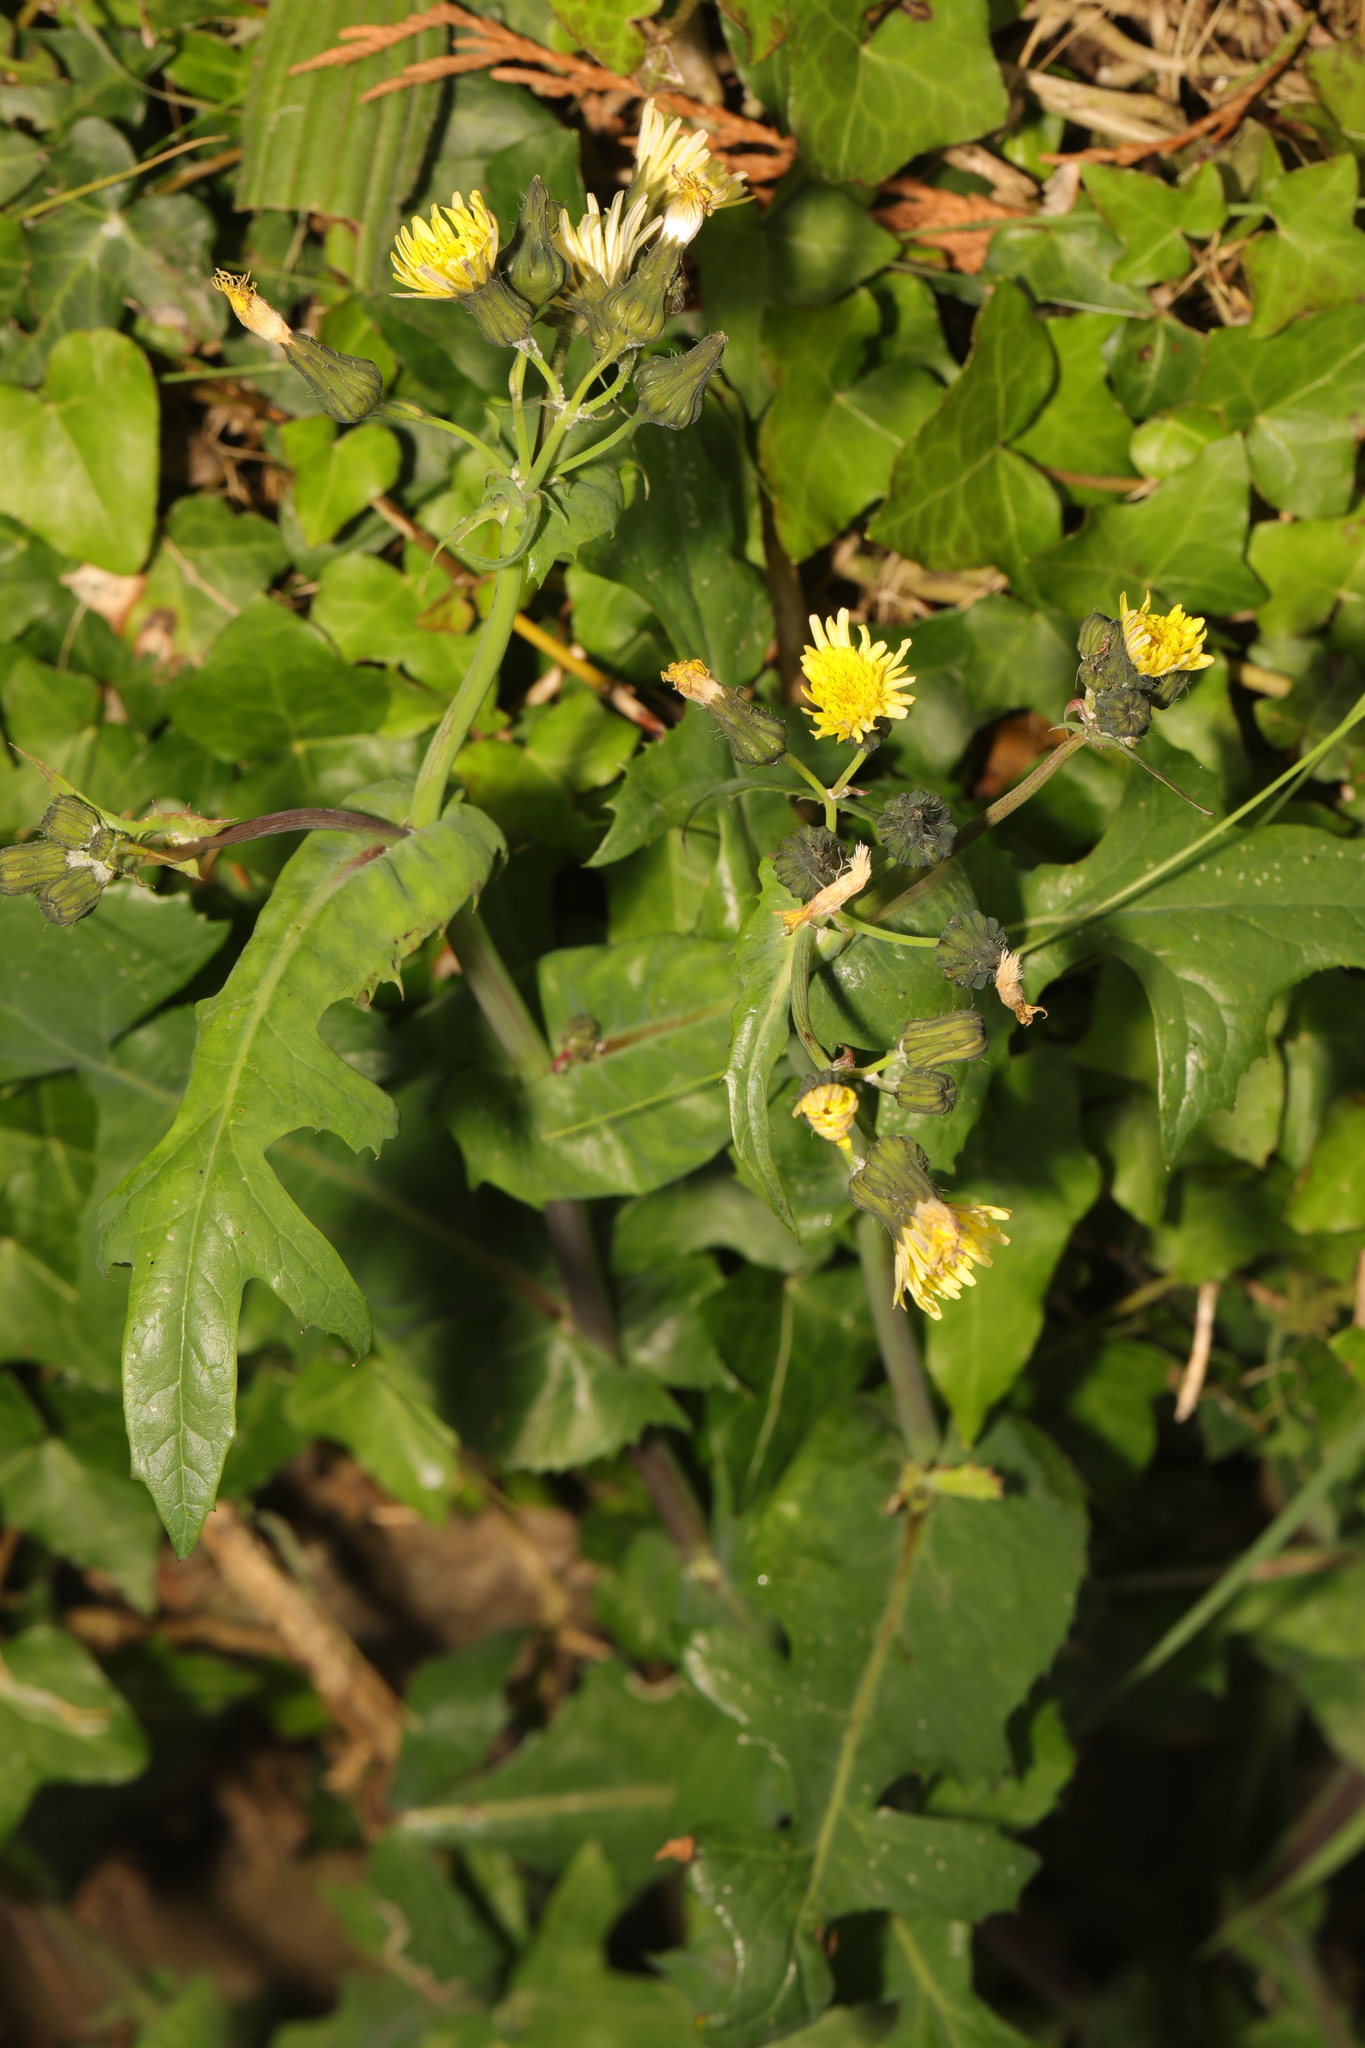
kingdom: Plantae
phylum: Tracheophyta
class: Magnoliopsida
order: Asterales
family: Asteraceae
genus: Sonchus
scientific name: Sonchus oleraceus
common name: Common sowthistle
